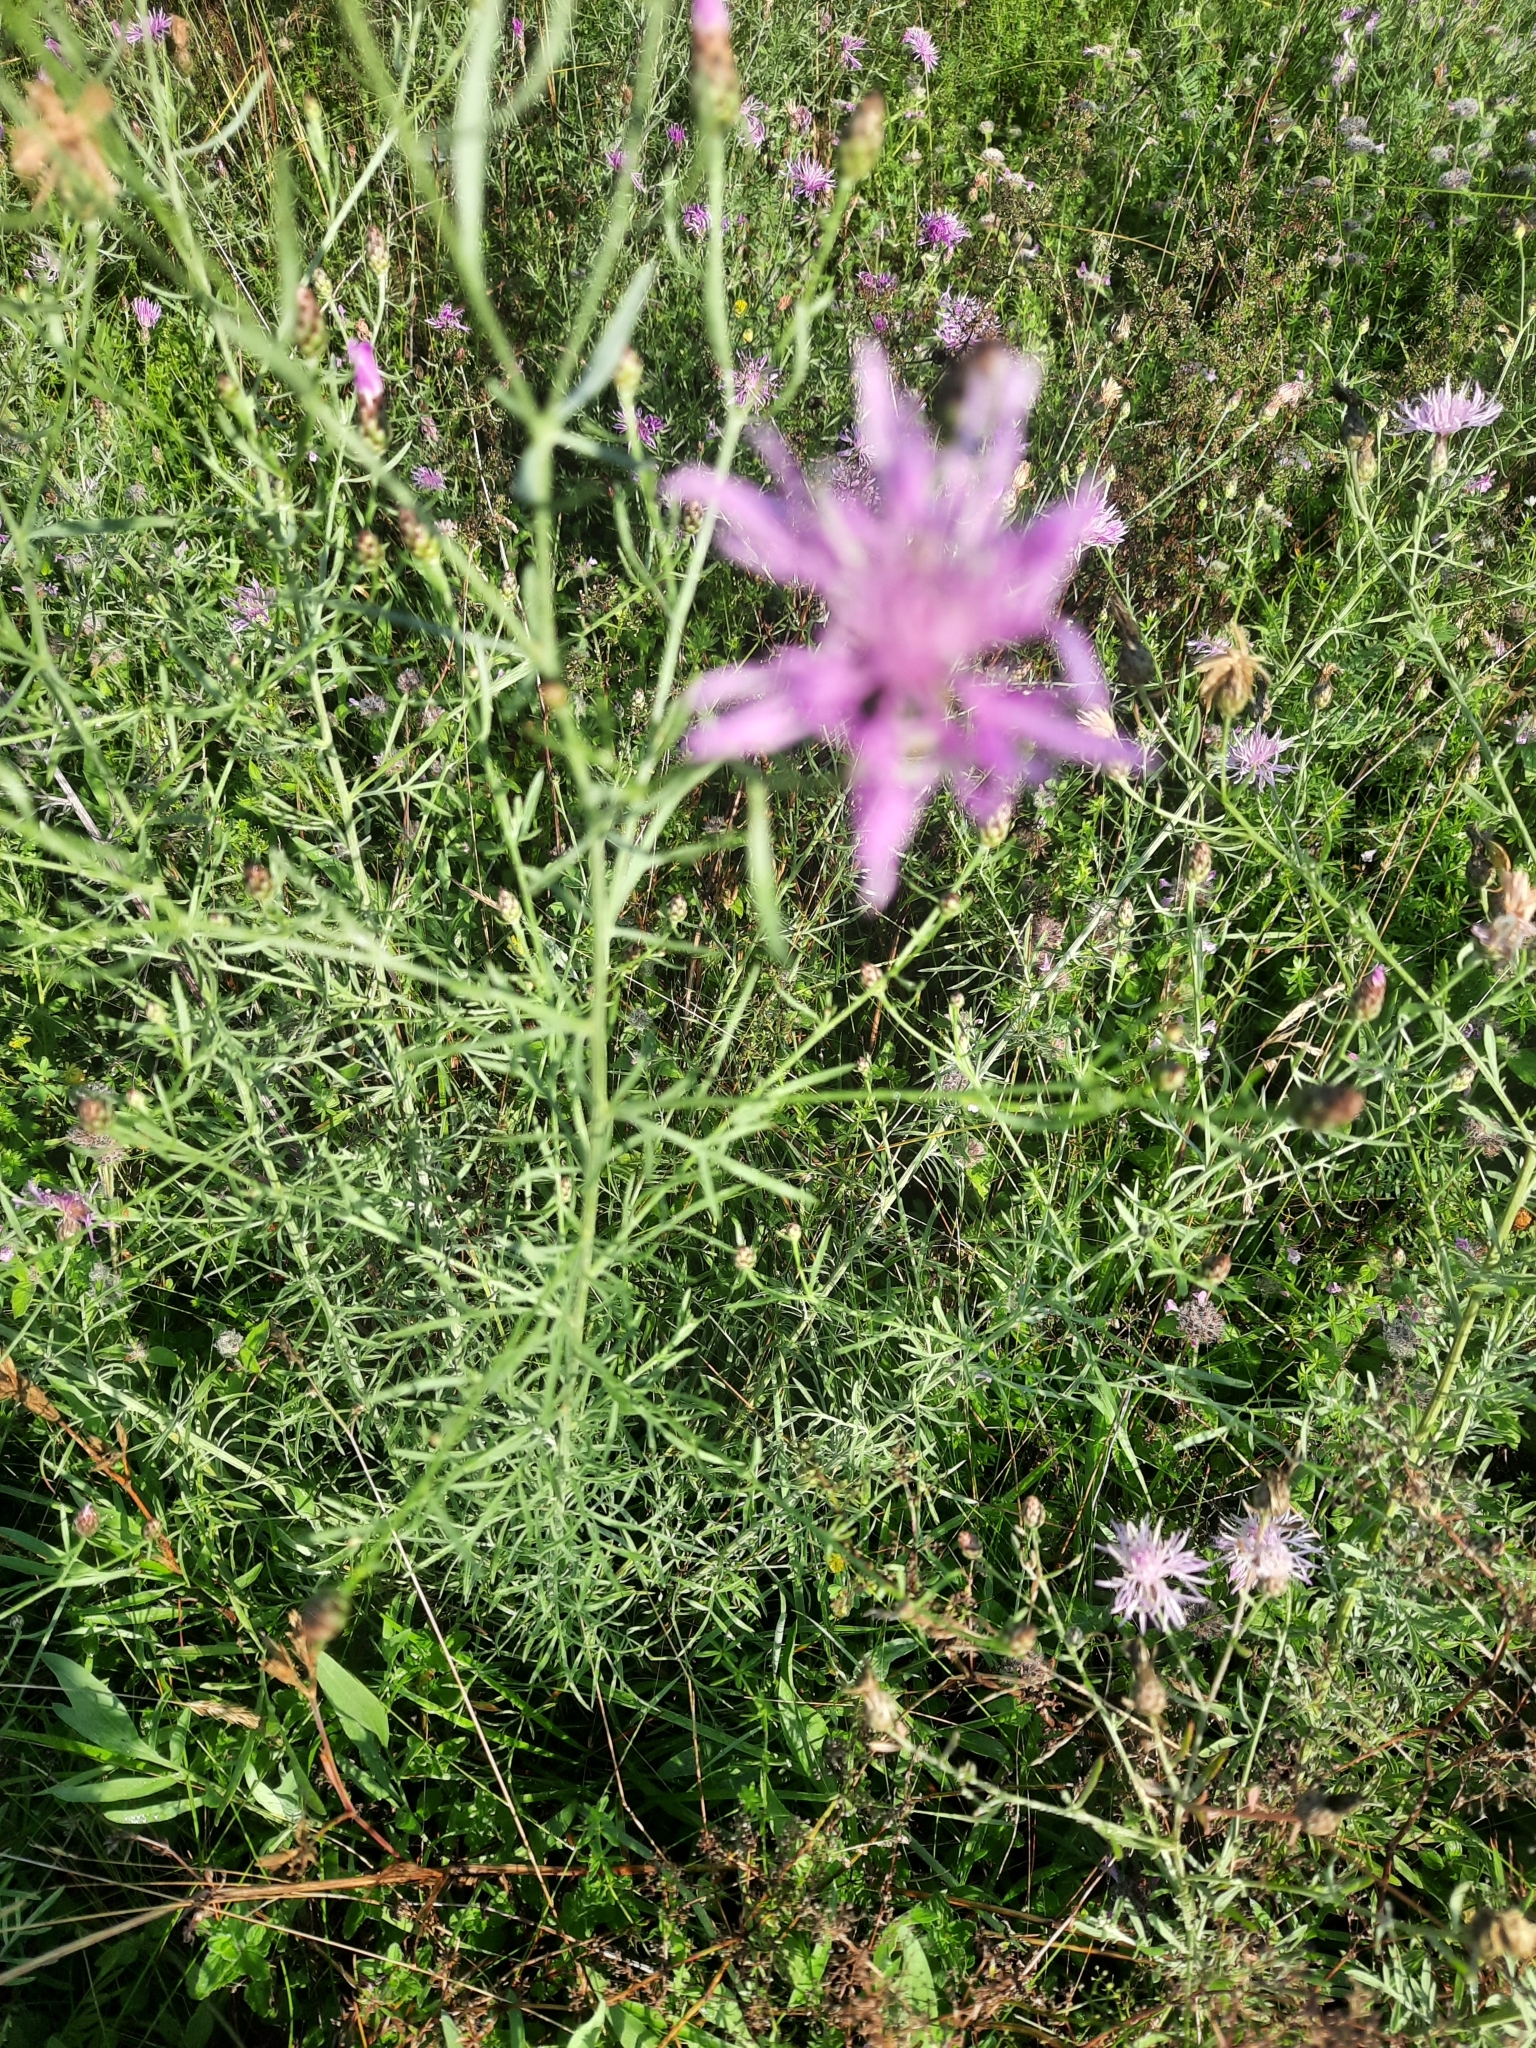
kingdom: Plantae
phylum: Tracheophyta
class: Magnoliopsida
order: Asterales
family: Asteraceae
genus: Centaurea
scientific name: Centaurea stoebe
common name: Spotted knapweed
